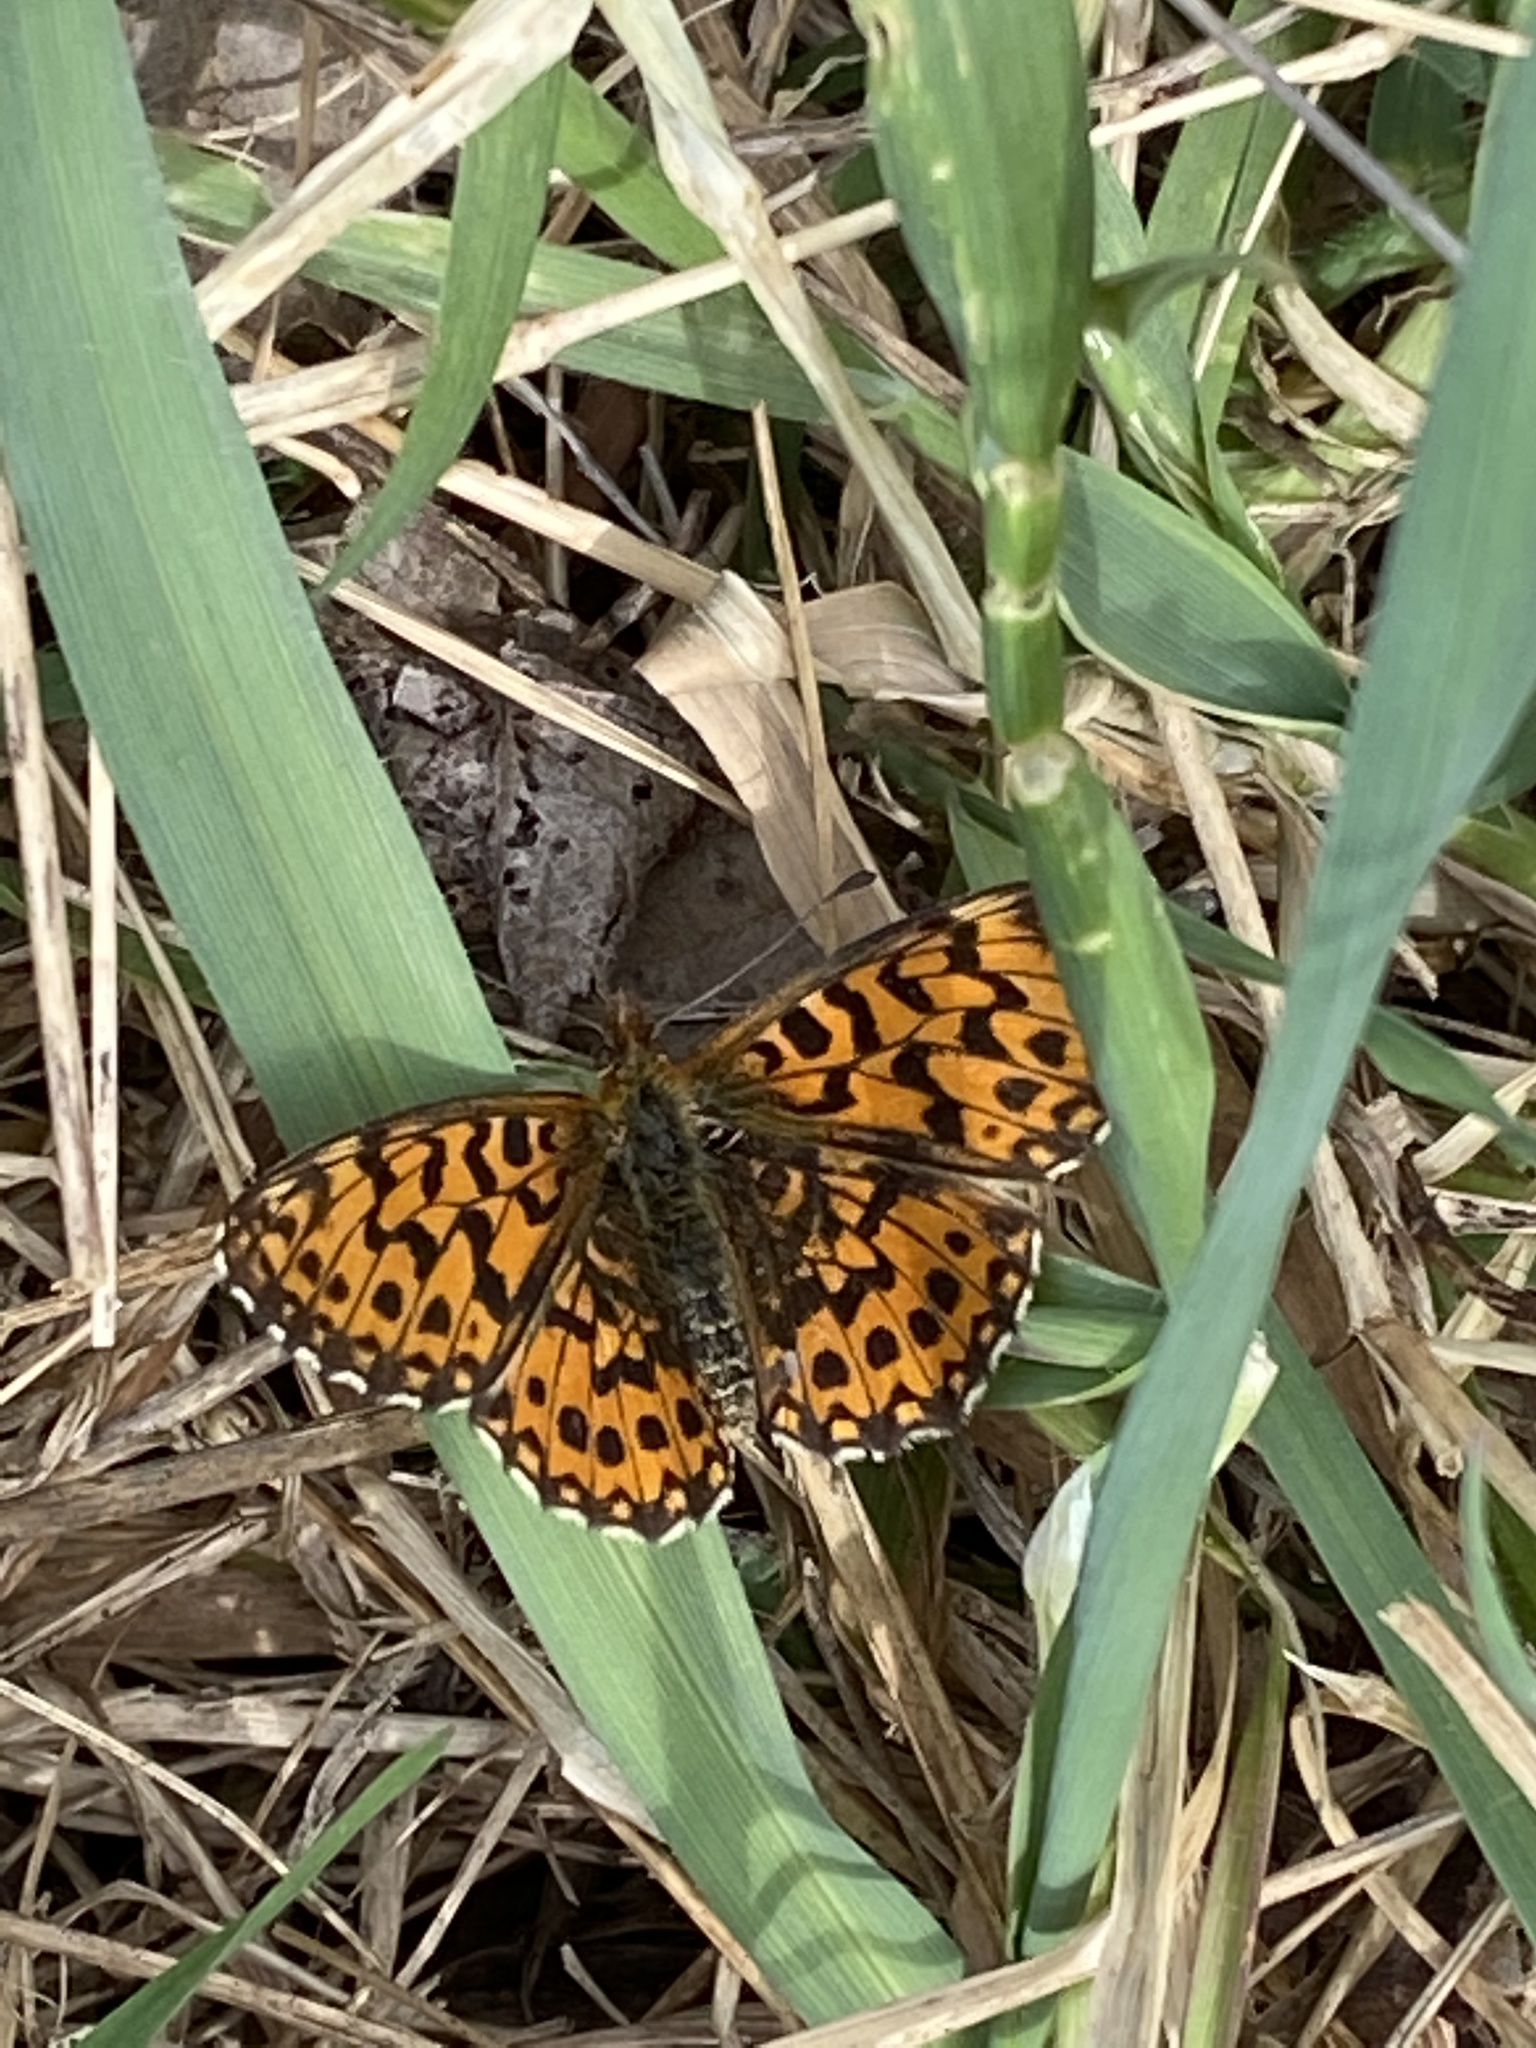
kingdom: Animalia
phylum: Arthropoda
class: Insecta
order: Lepidoptera
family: Nymphalidae
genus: Boloria
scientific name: Boloria dia
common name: Weaver's fritillary
